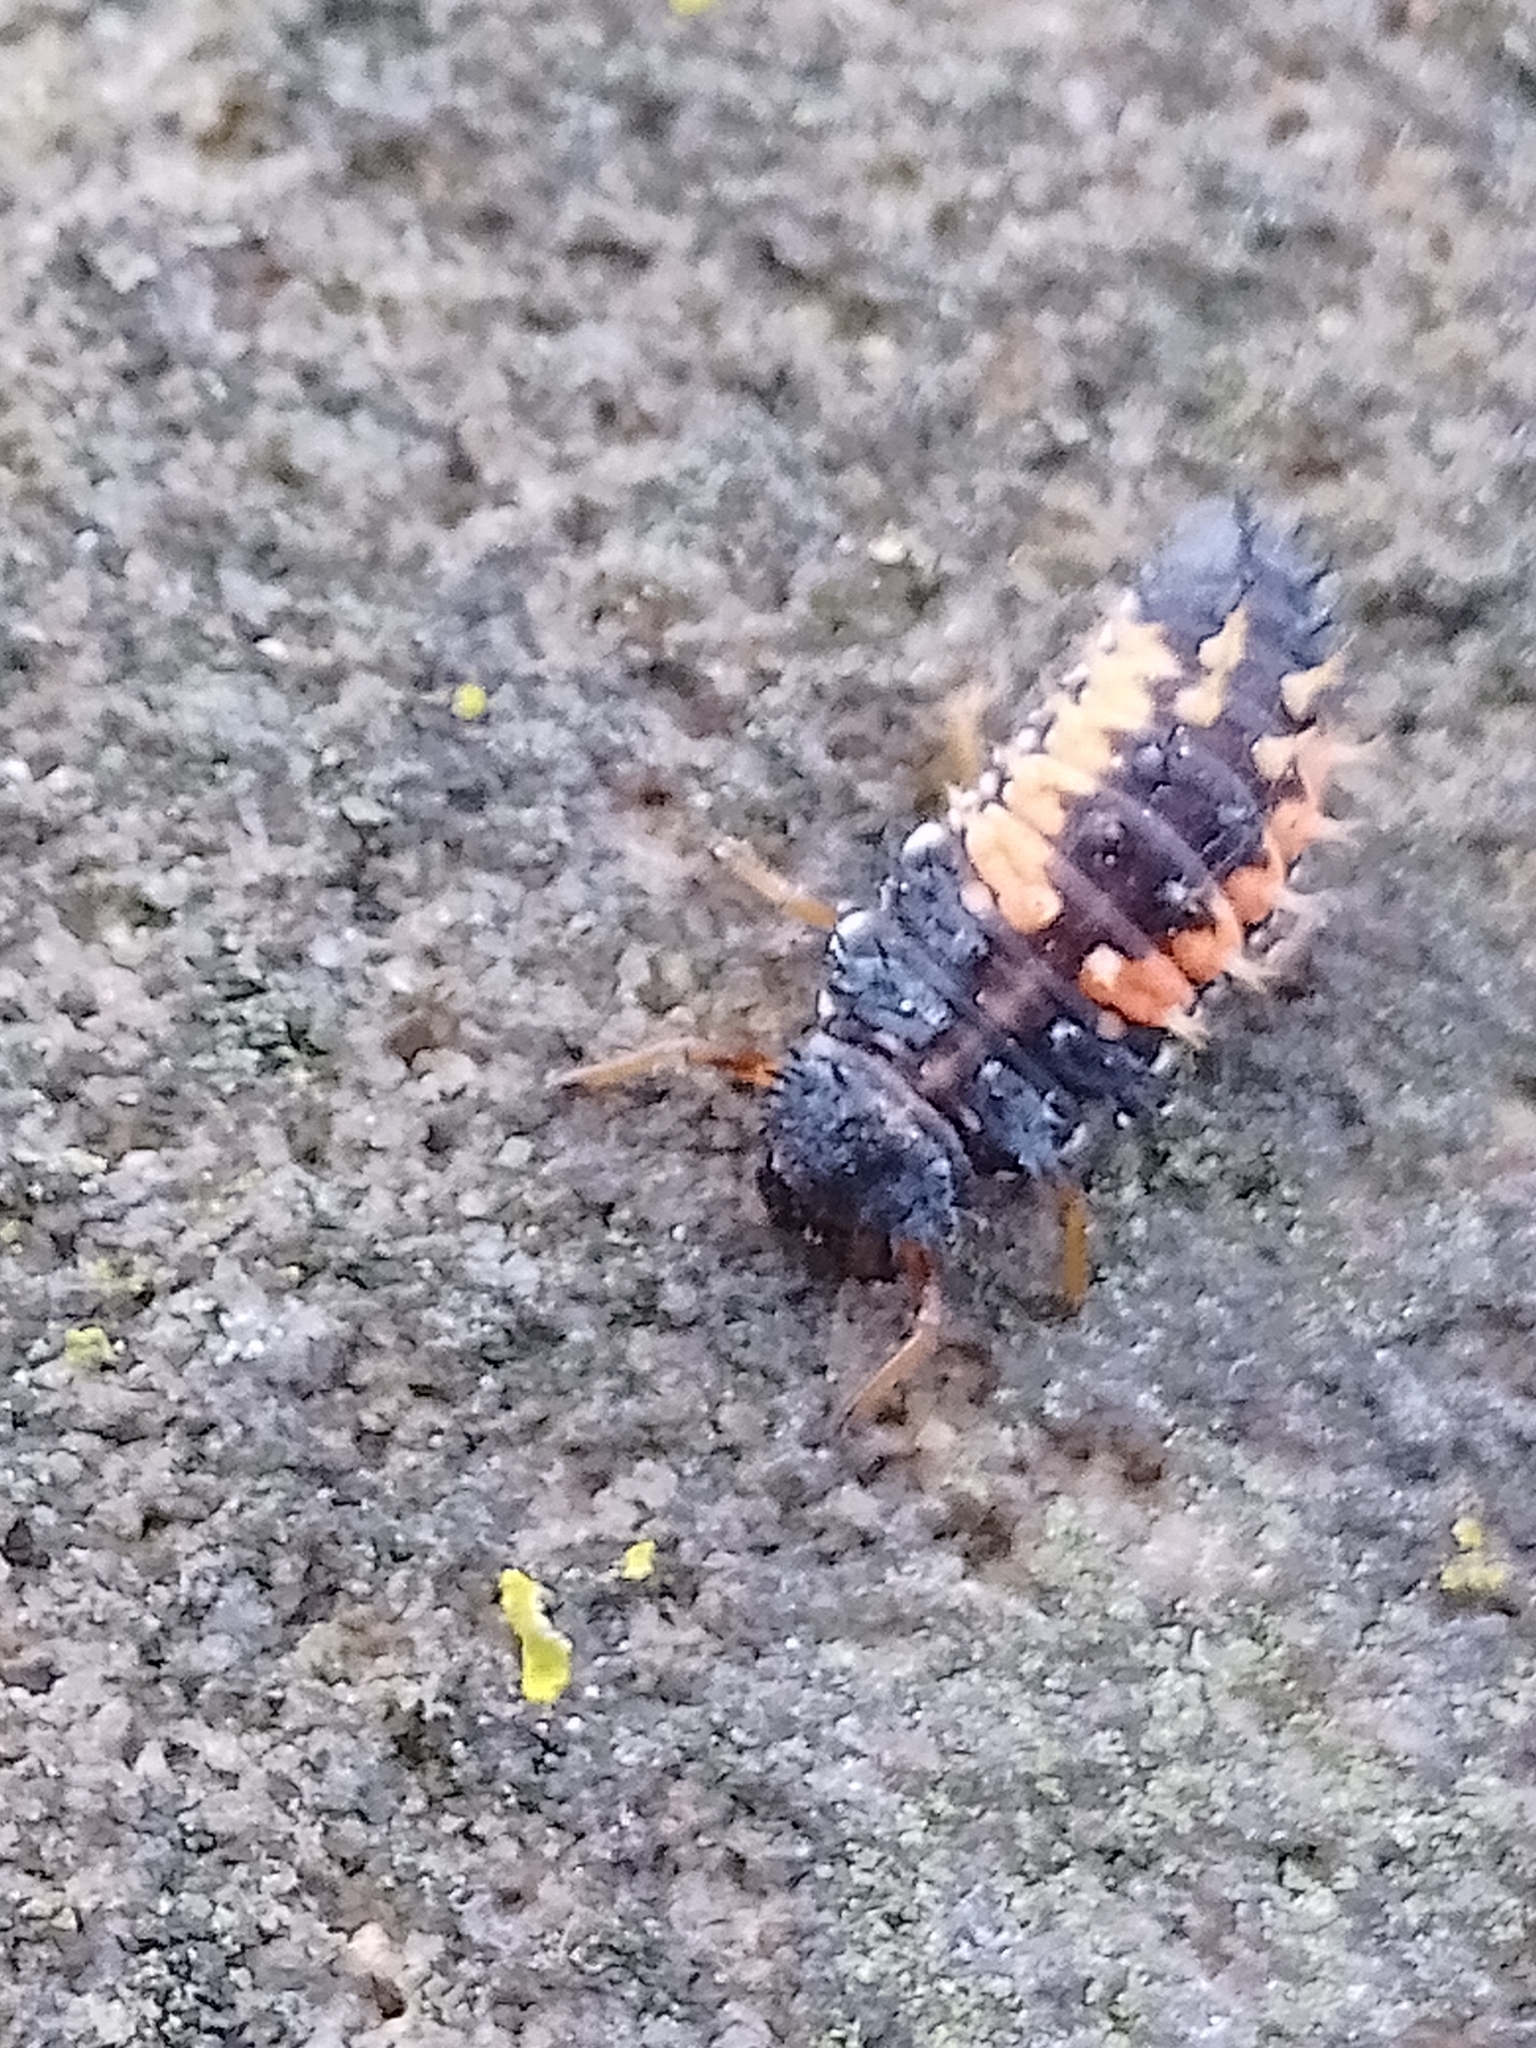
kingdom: Animalia
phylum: Arthropoda
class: Insecta
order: Coleoptera
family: Coccinellidae
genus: Harmonia
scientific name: Harmonia axyridis
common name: Harlequin ladybird
